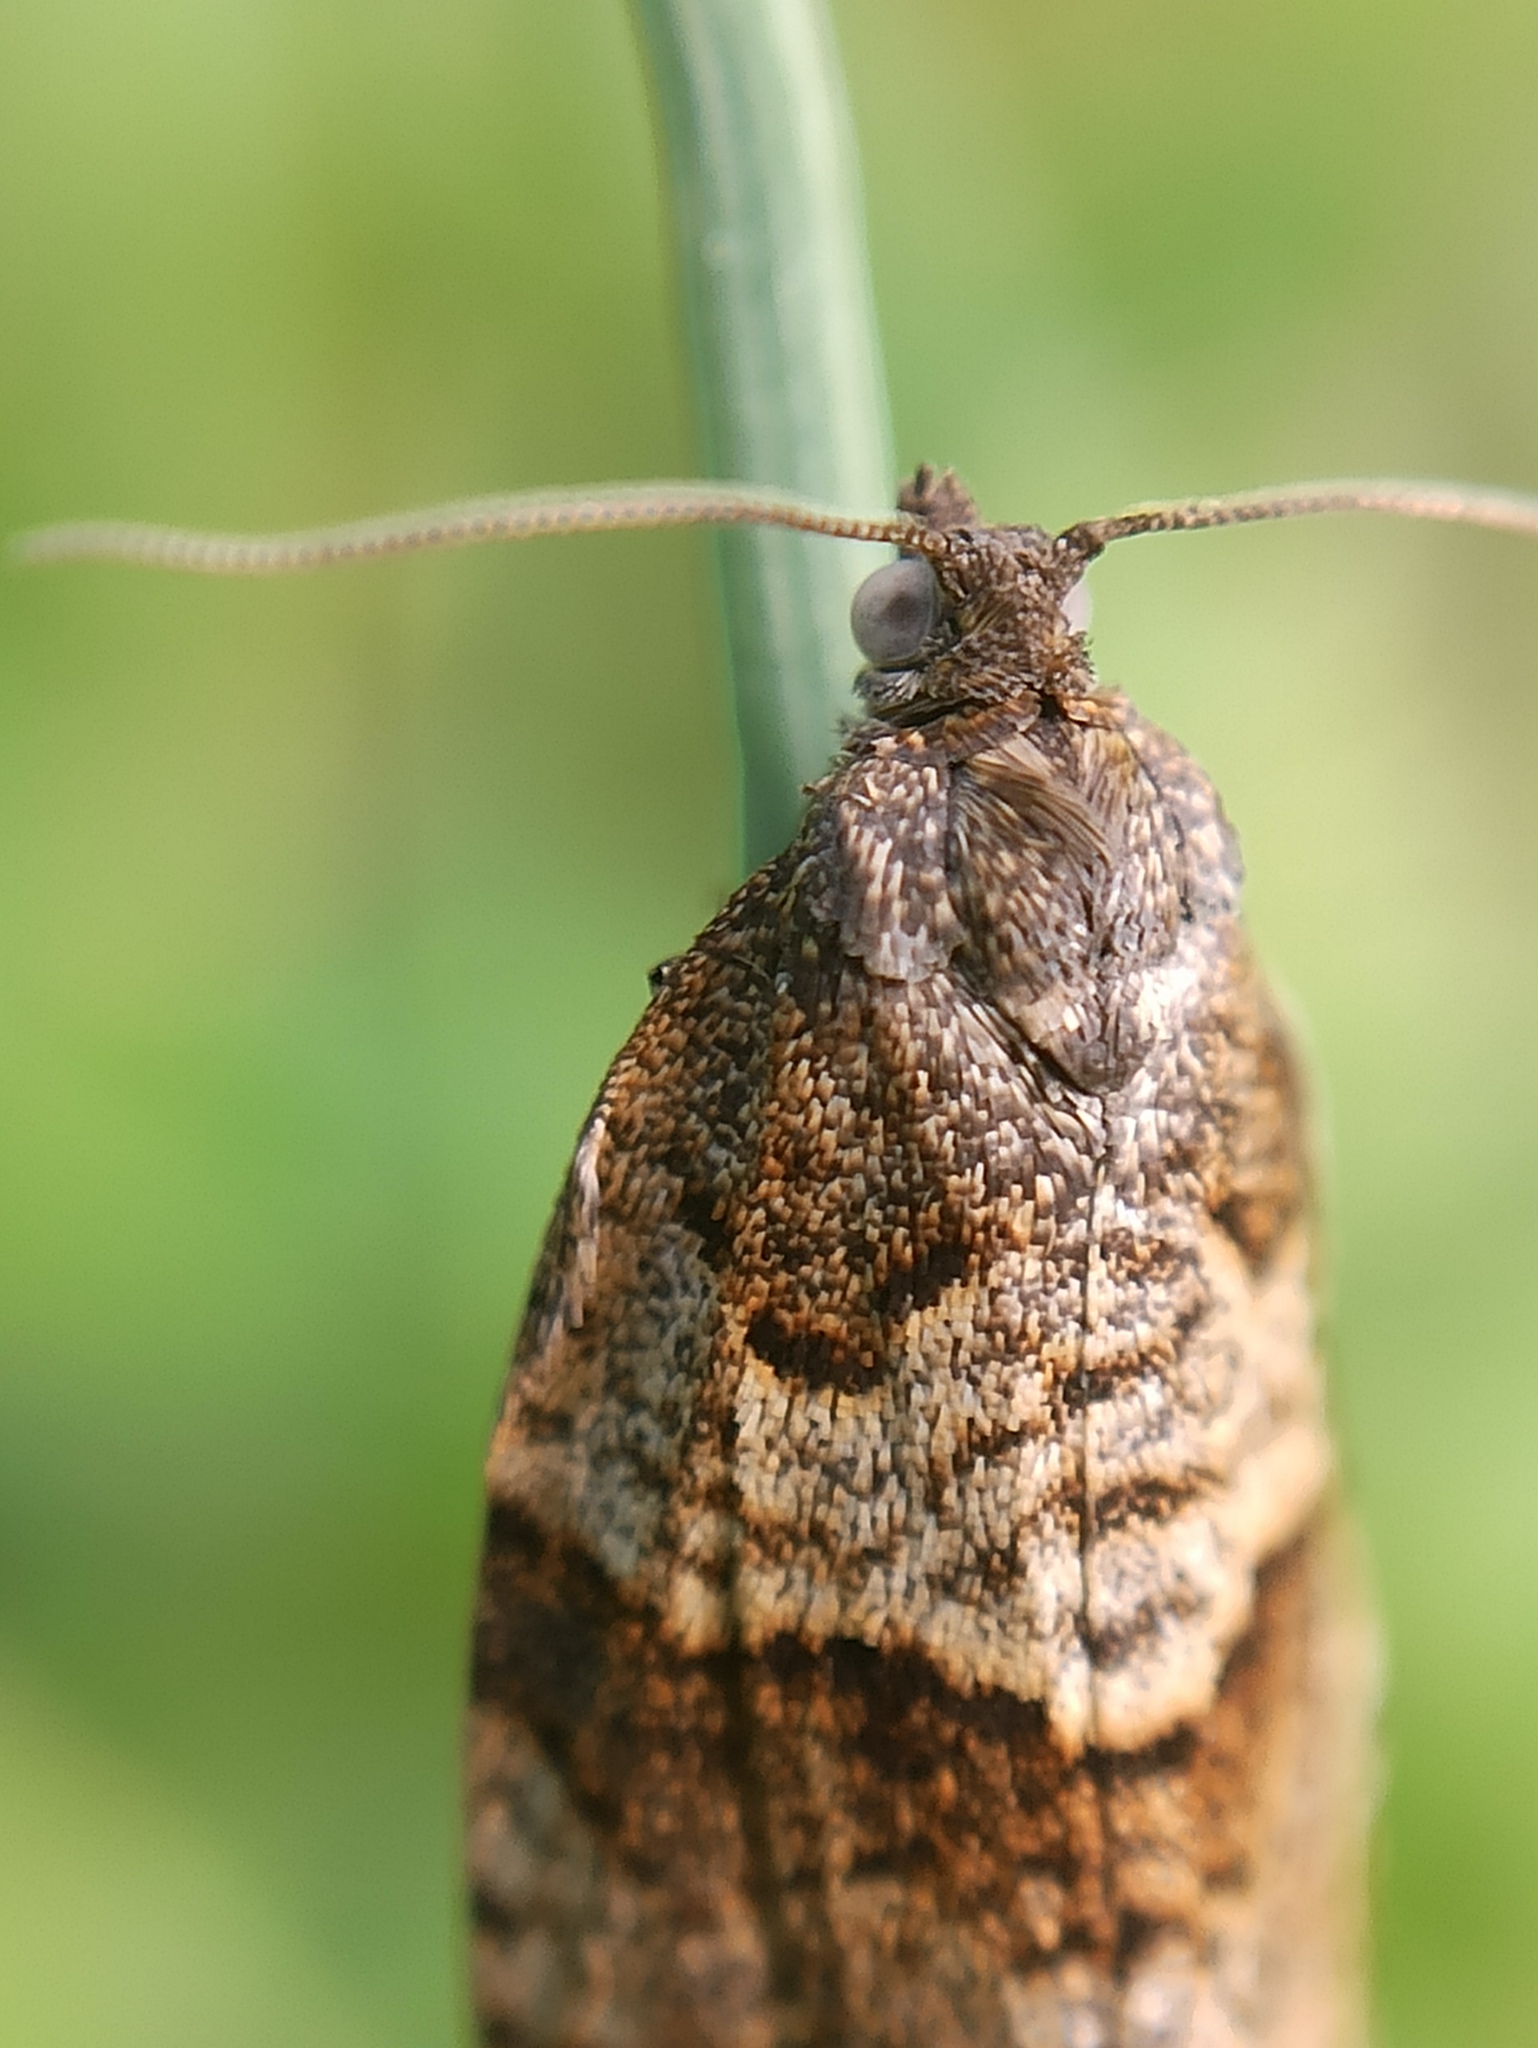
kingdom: Animalia
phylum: Arthropoda
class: Insecta
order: Lepidoptera
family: Tortricidae
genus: Syndemis
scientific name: Syndemis musculana
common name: Dark-barred twist
